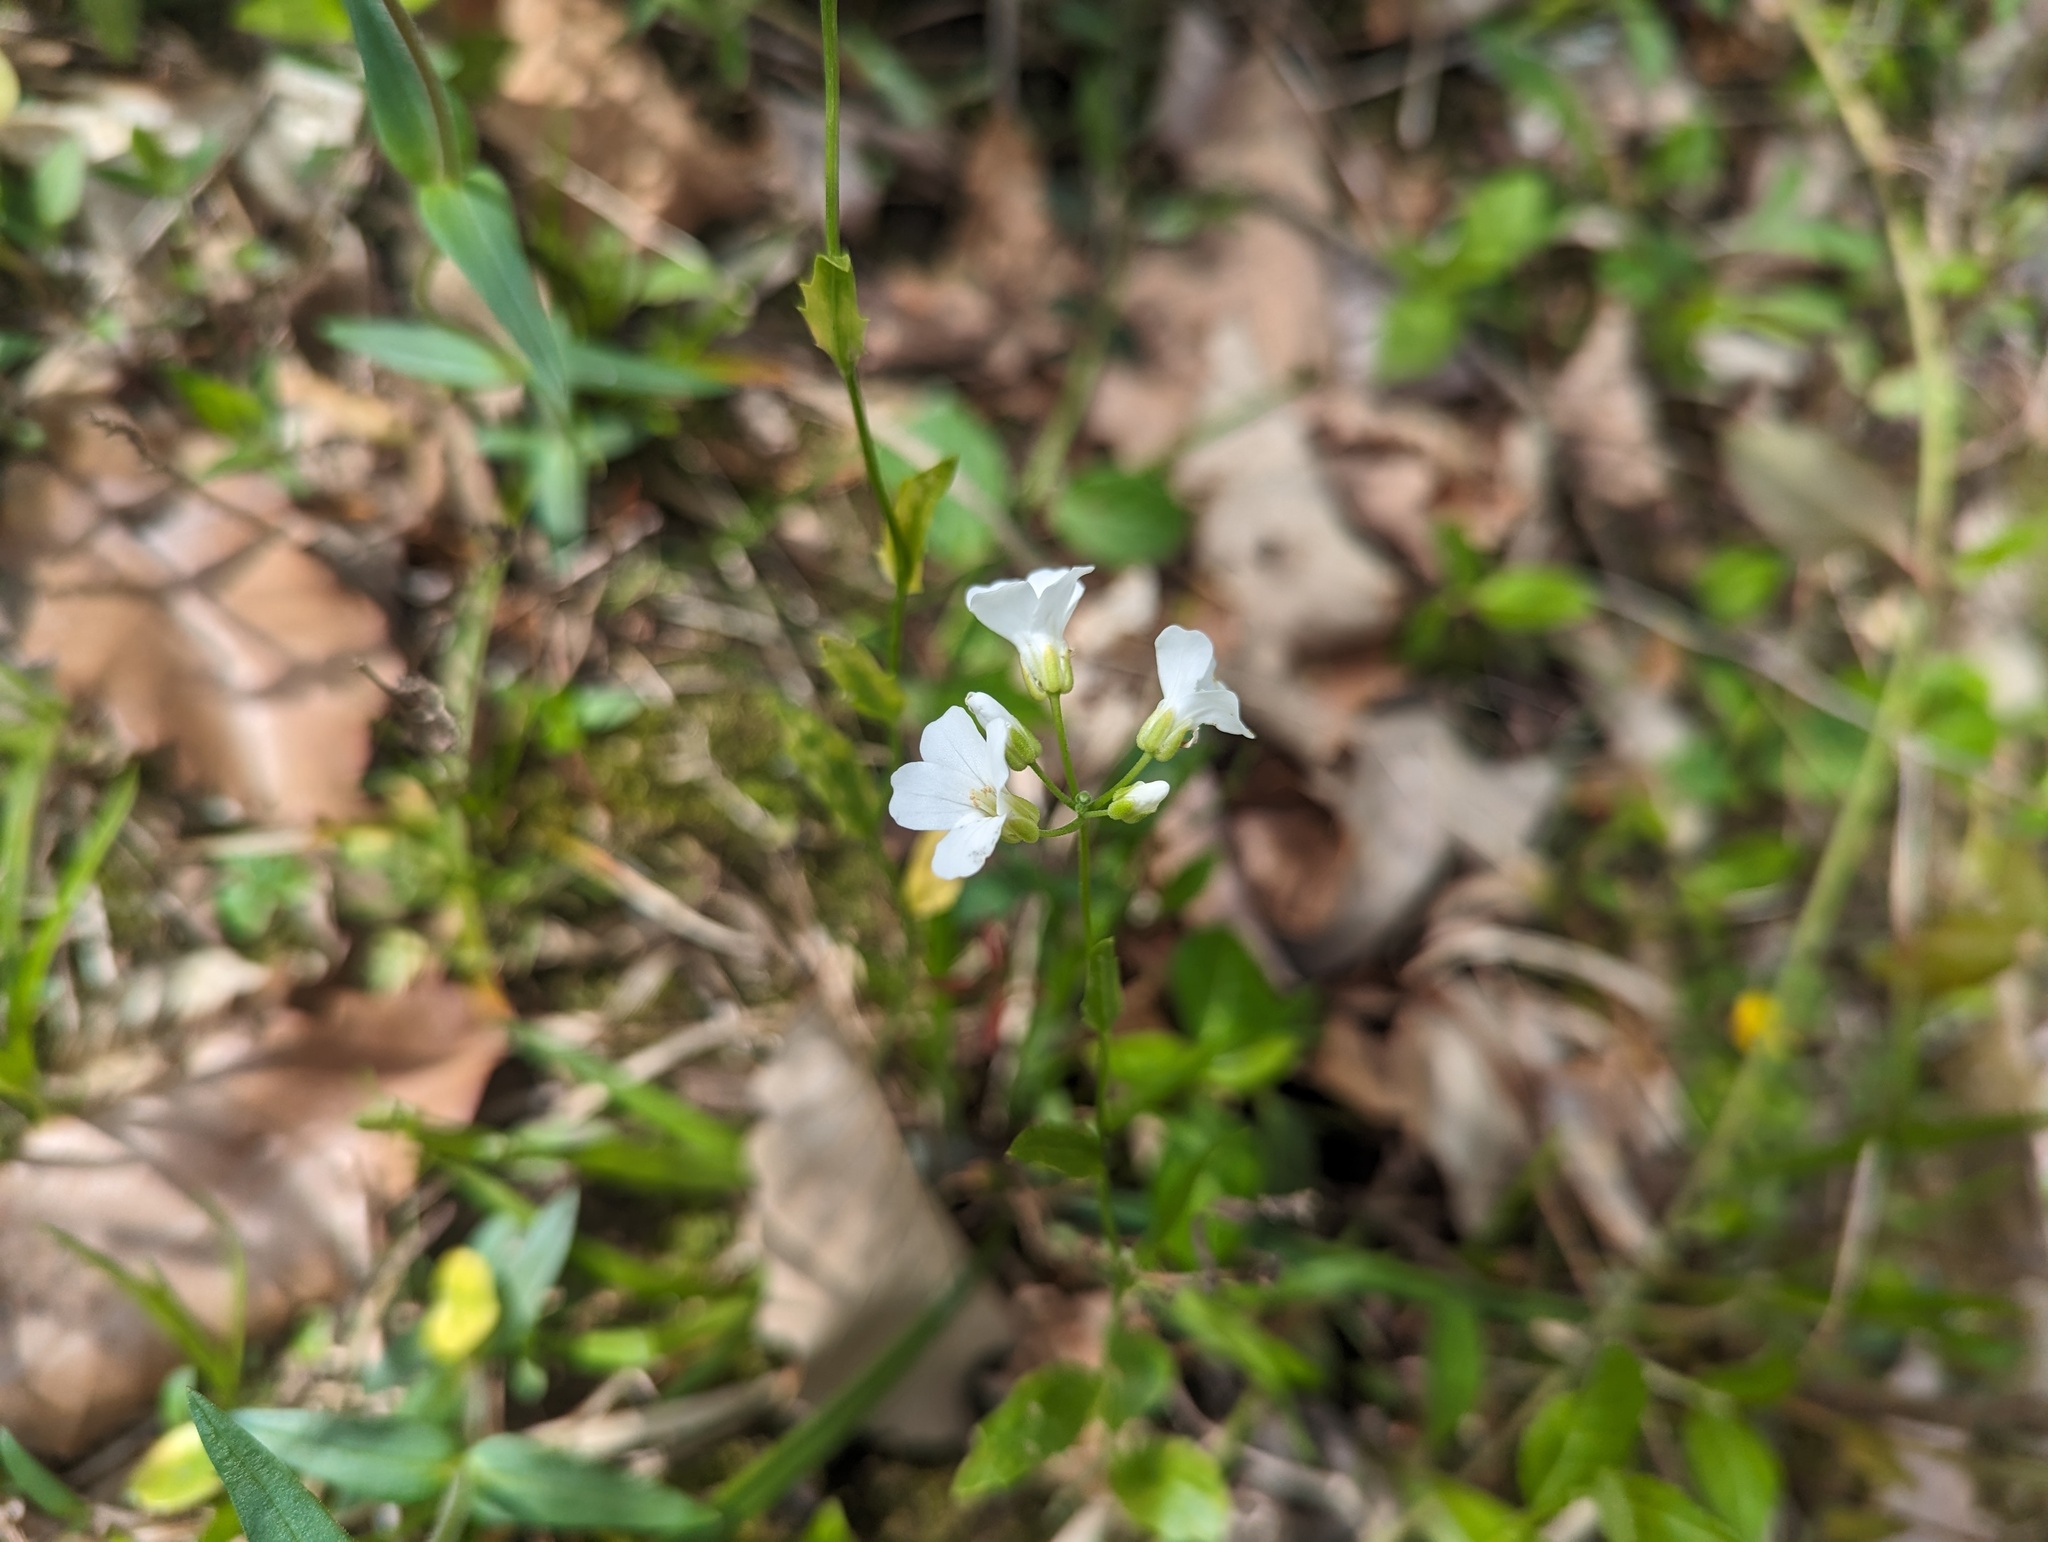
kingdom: Plantae
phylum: Tracheophyta
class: Magnoliopsida
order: Brassicales
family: Brassicaceae
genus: Cardamine
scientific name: Cardamine bulbosa
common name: Spring cress
